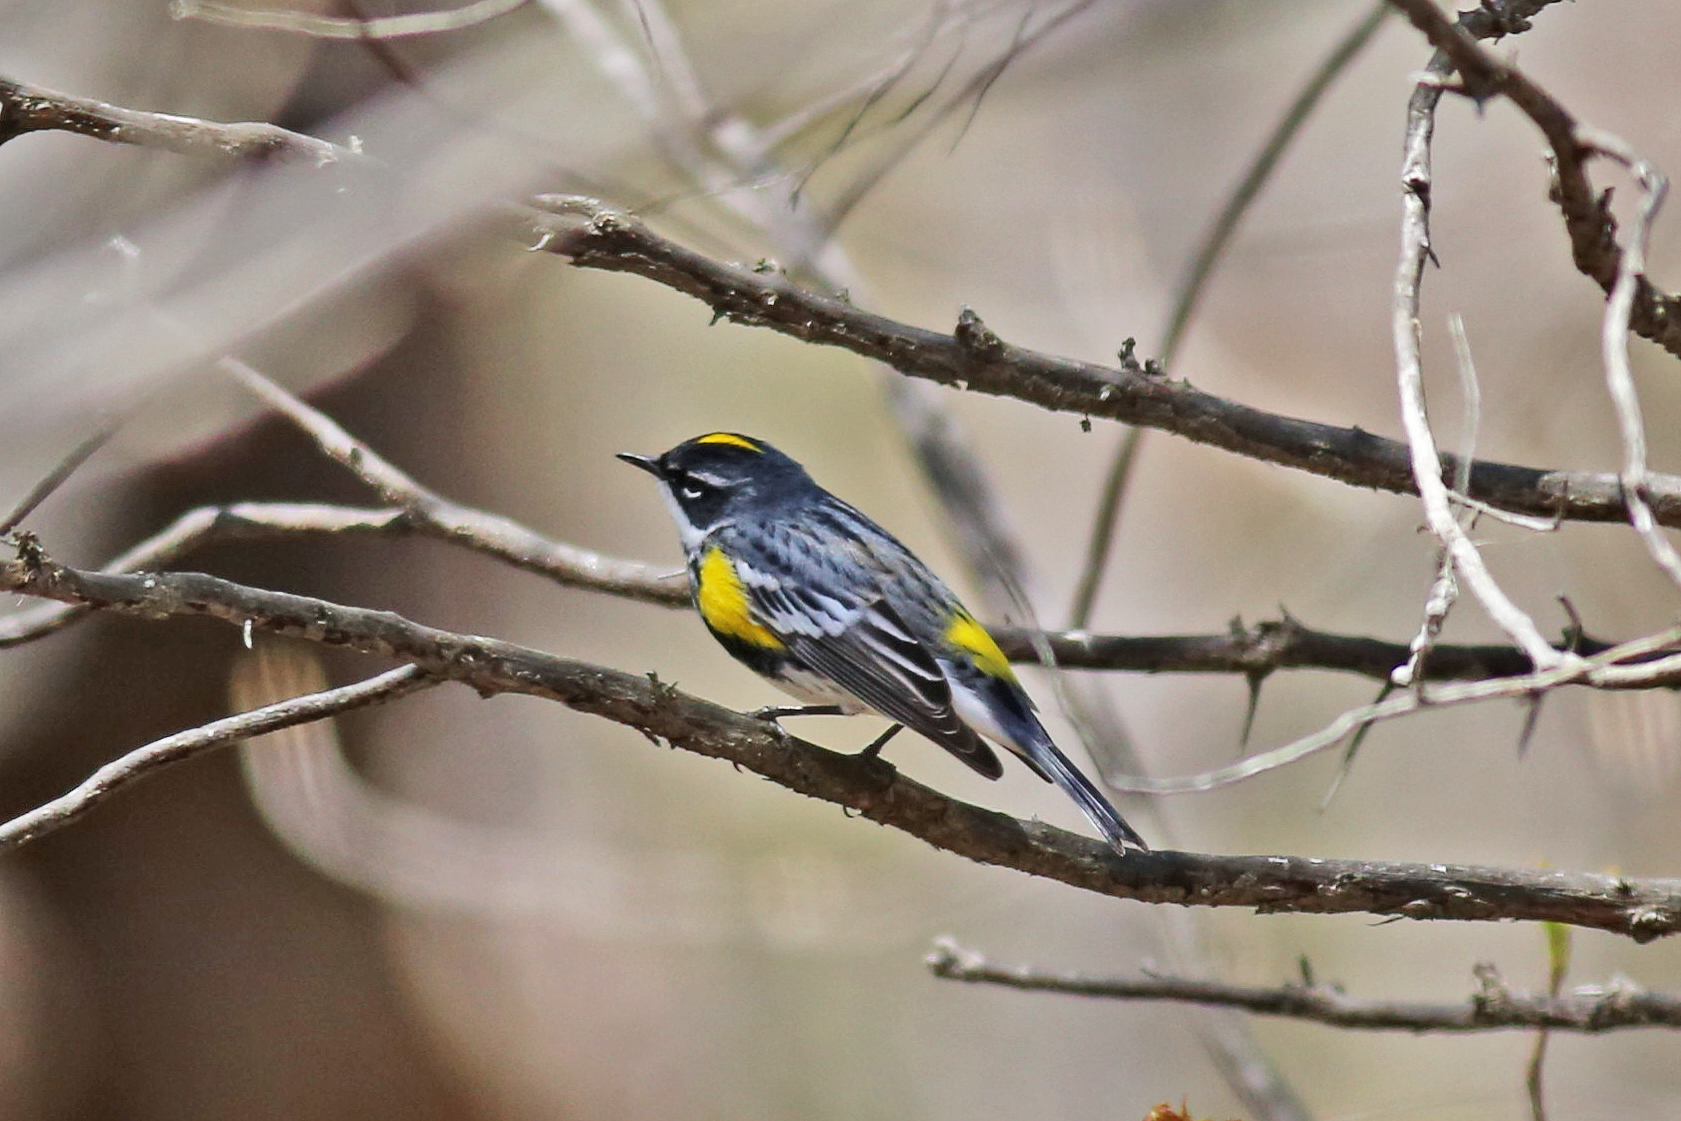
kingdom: Animalia
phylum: Chordata
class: Aves
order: Passeriformes
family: Parulidae
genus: Setophaga
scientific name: Setophaga coronata
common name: Myrtle warbler
